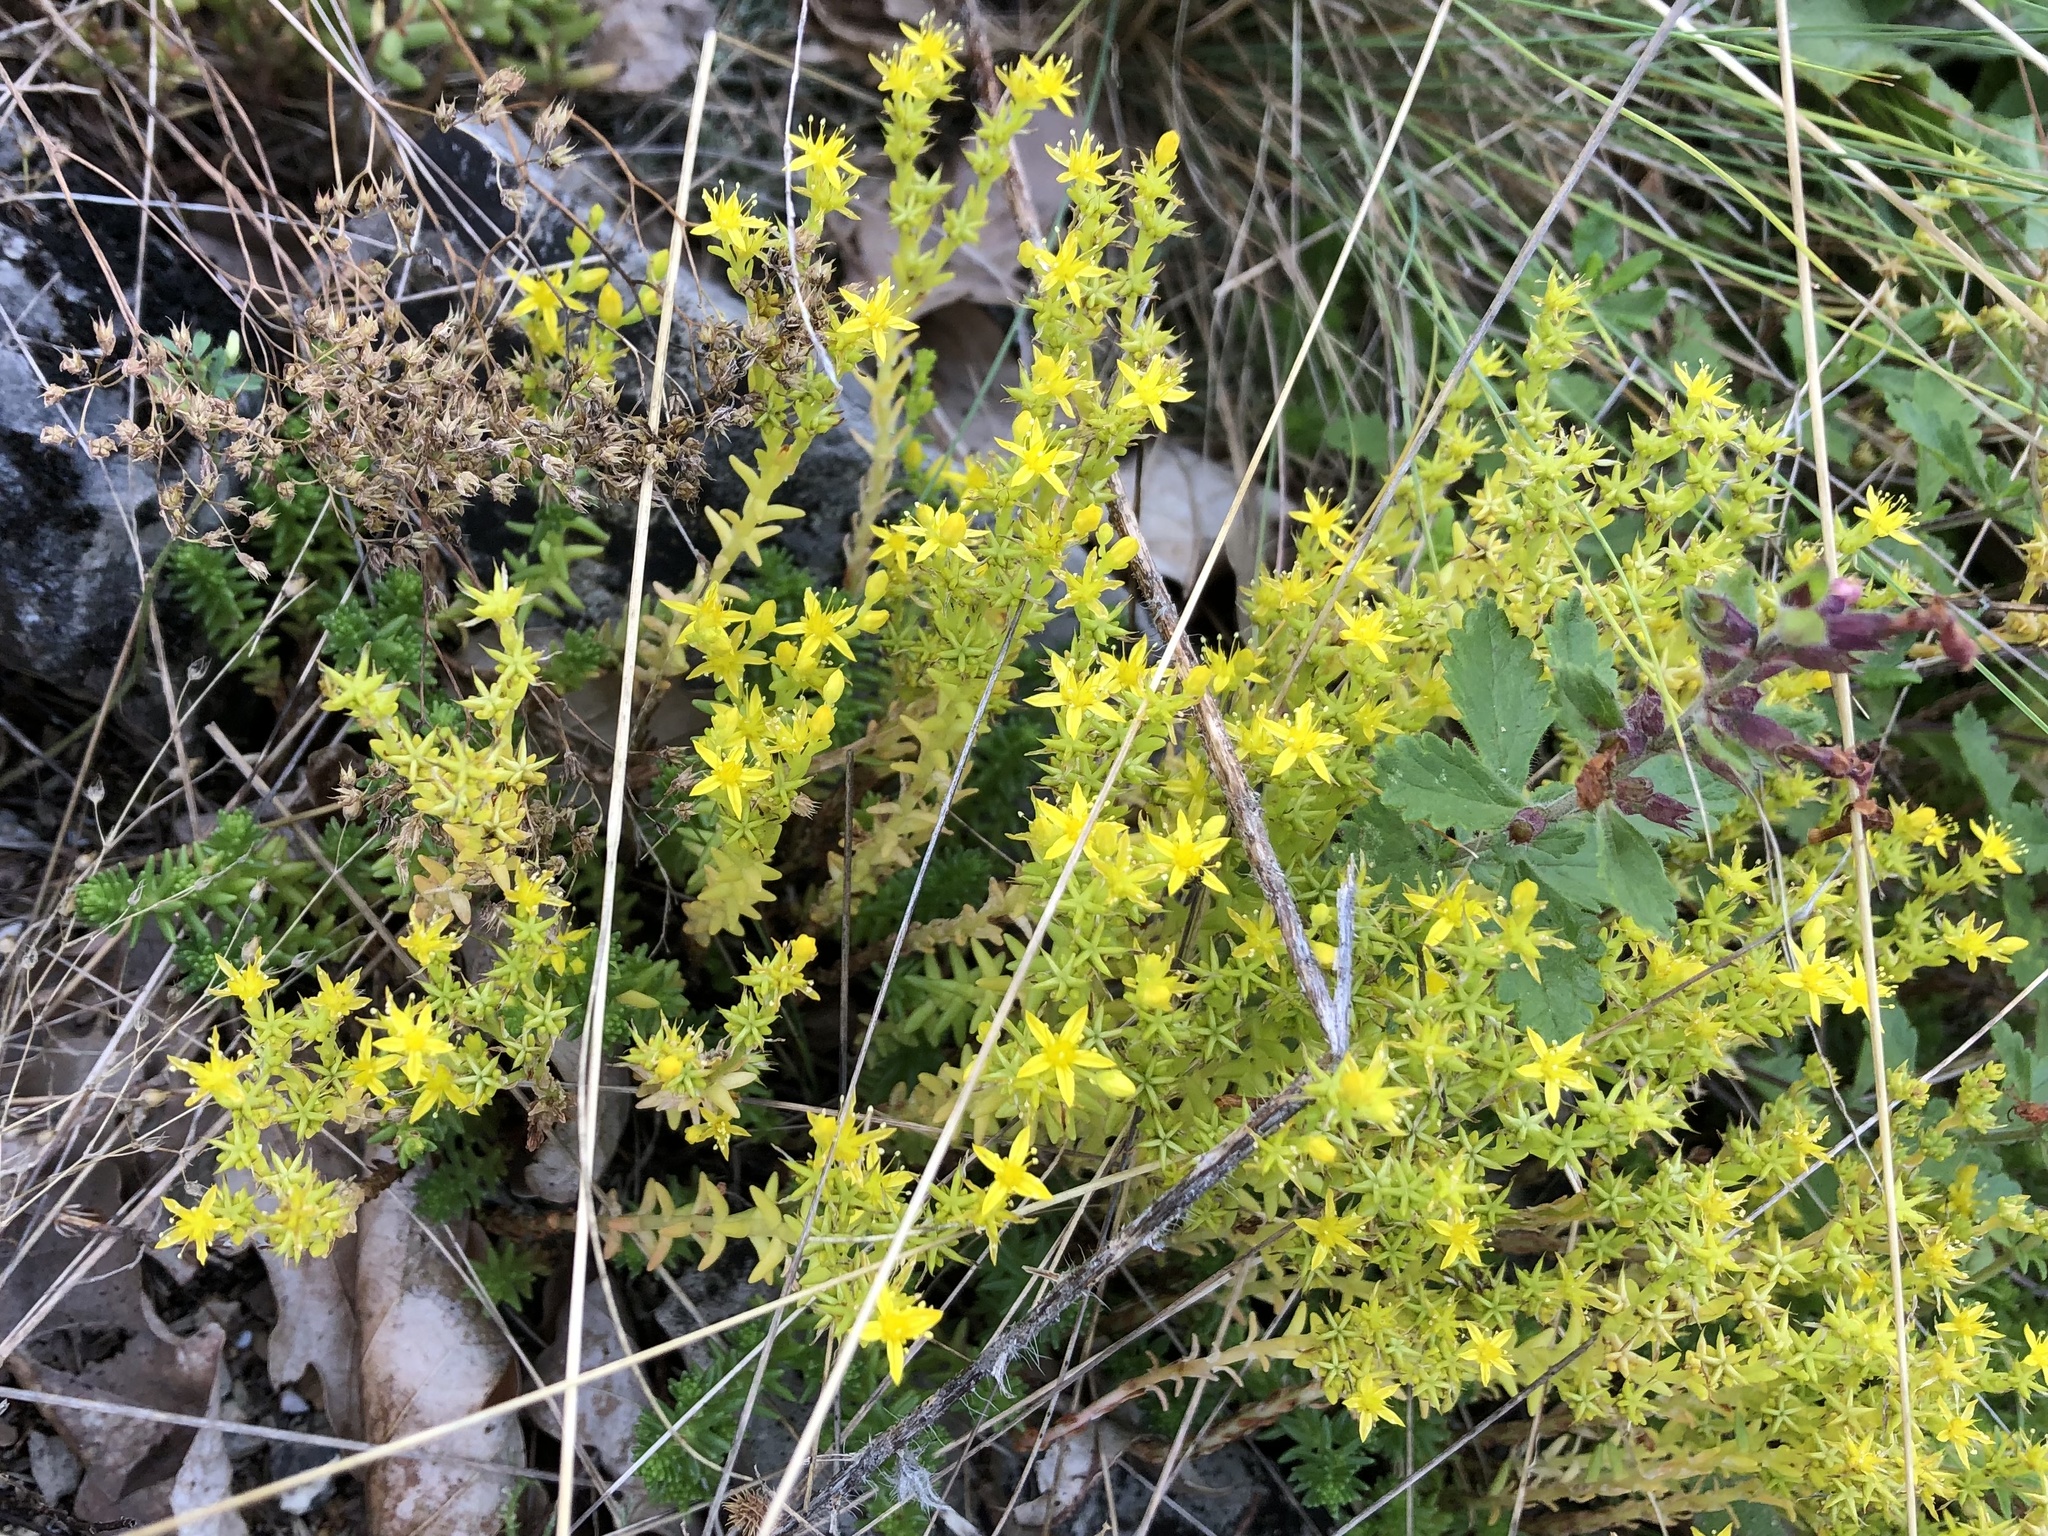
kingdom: Plantae
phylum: Tracheophyta
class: Magnoliopsida
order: Saxifragales
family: Crassulaceae
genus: Sedum
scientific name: Sedum sexangulare
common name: Tasteless stonecrop
